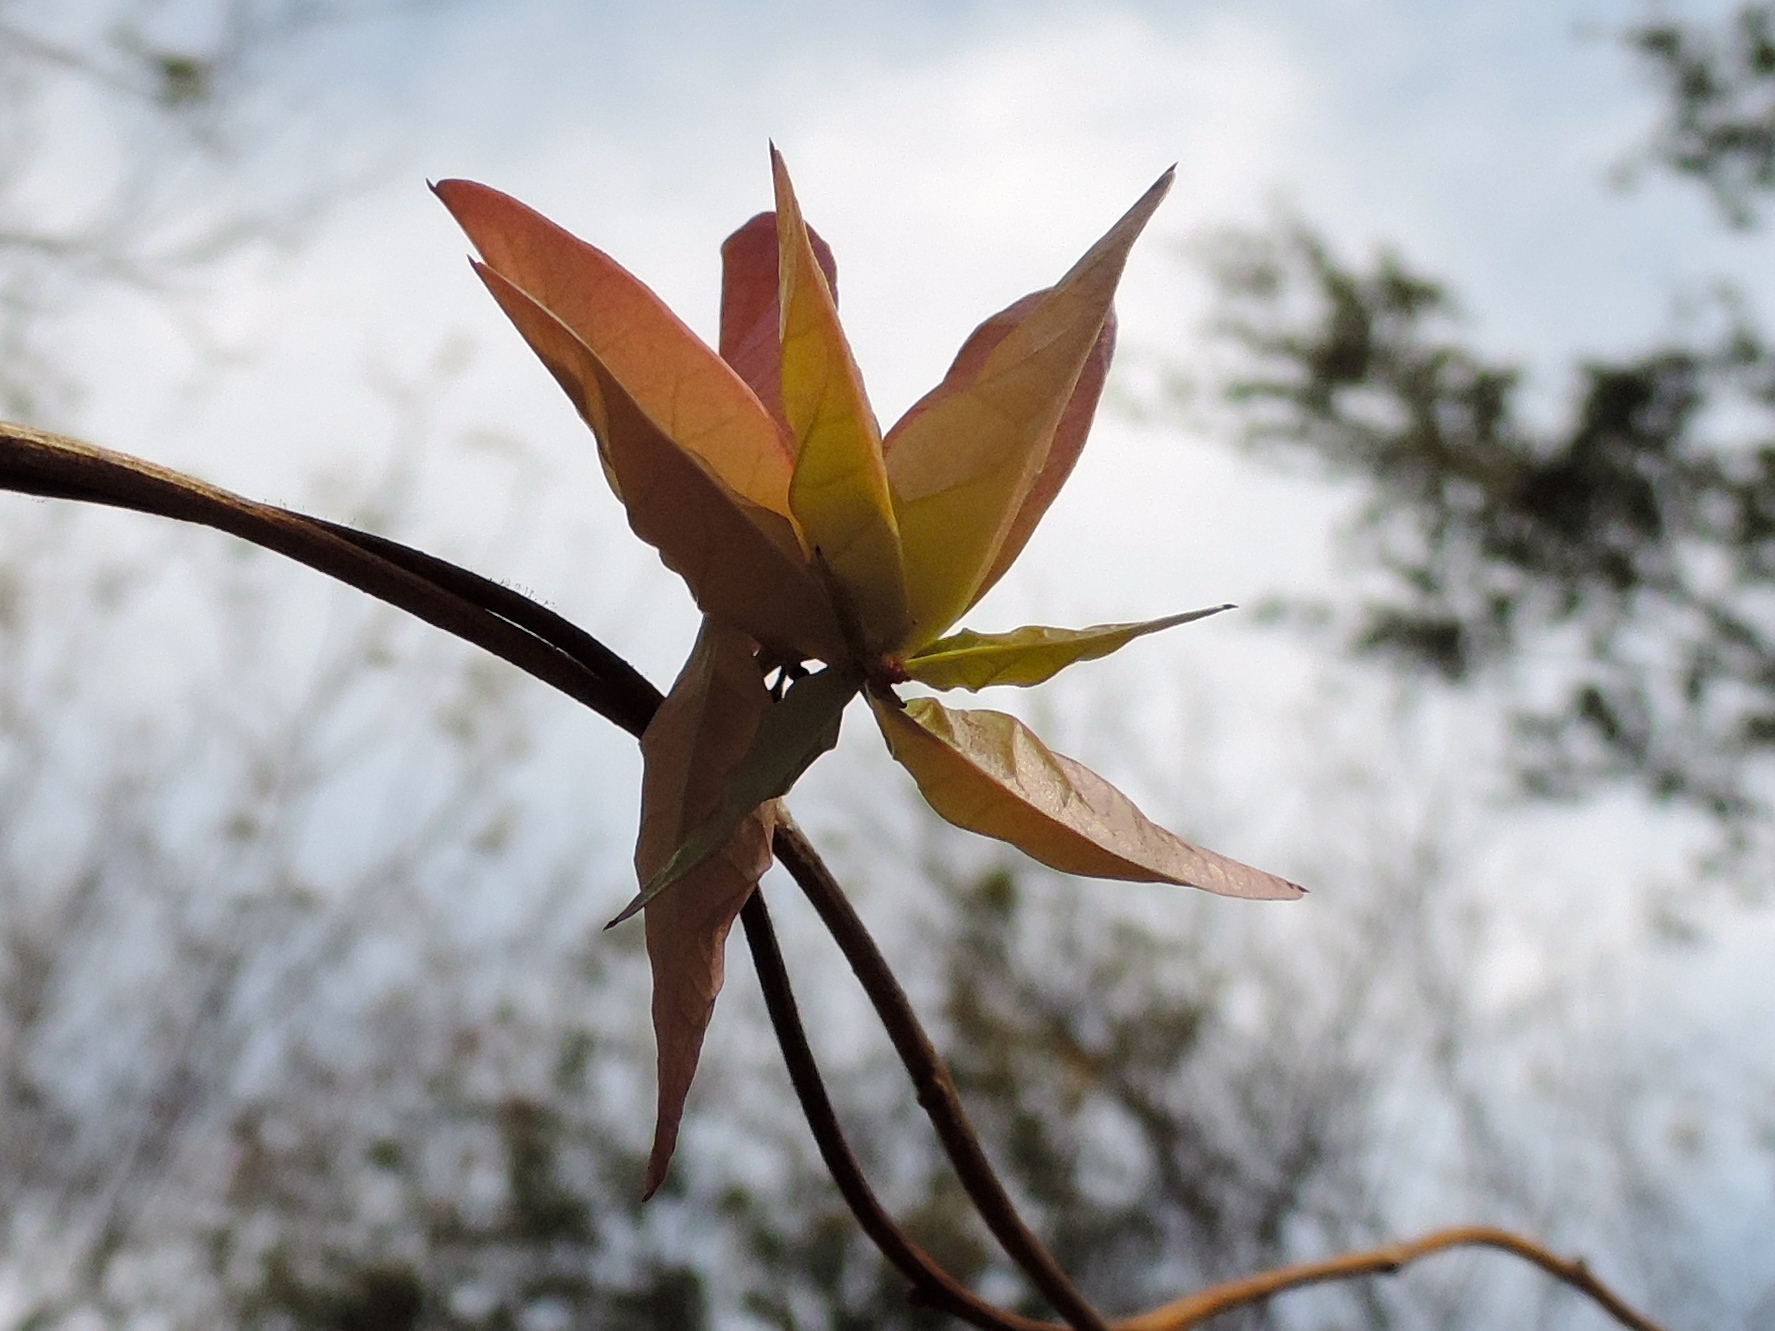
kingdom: Plantae
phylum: Tracheophyta
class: Magnoliopsida
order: Fabales
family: Fabaceae
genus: Macroptilium
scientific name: Macroptilium lathyroides
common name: Wild bushbean
